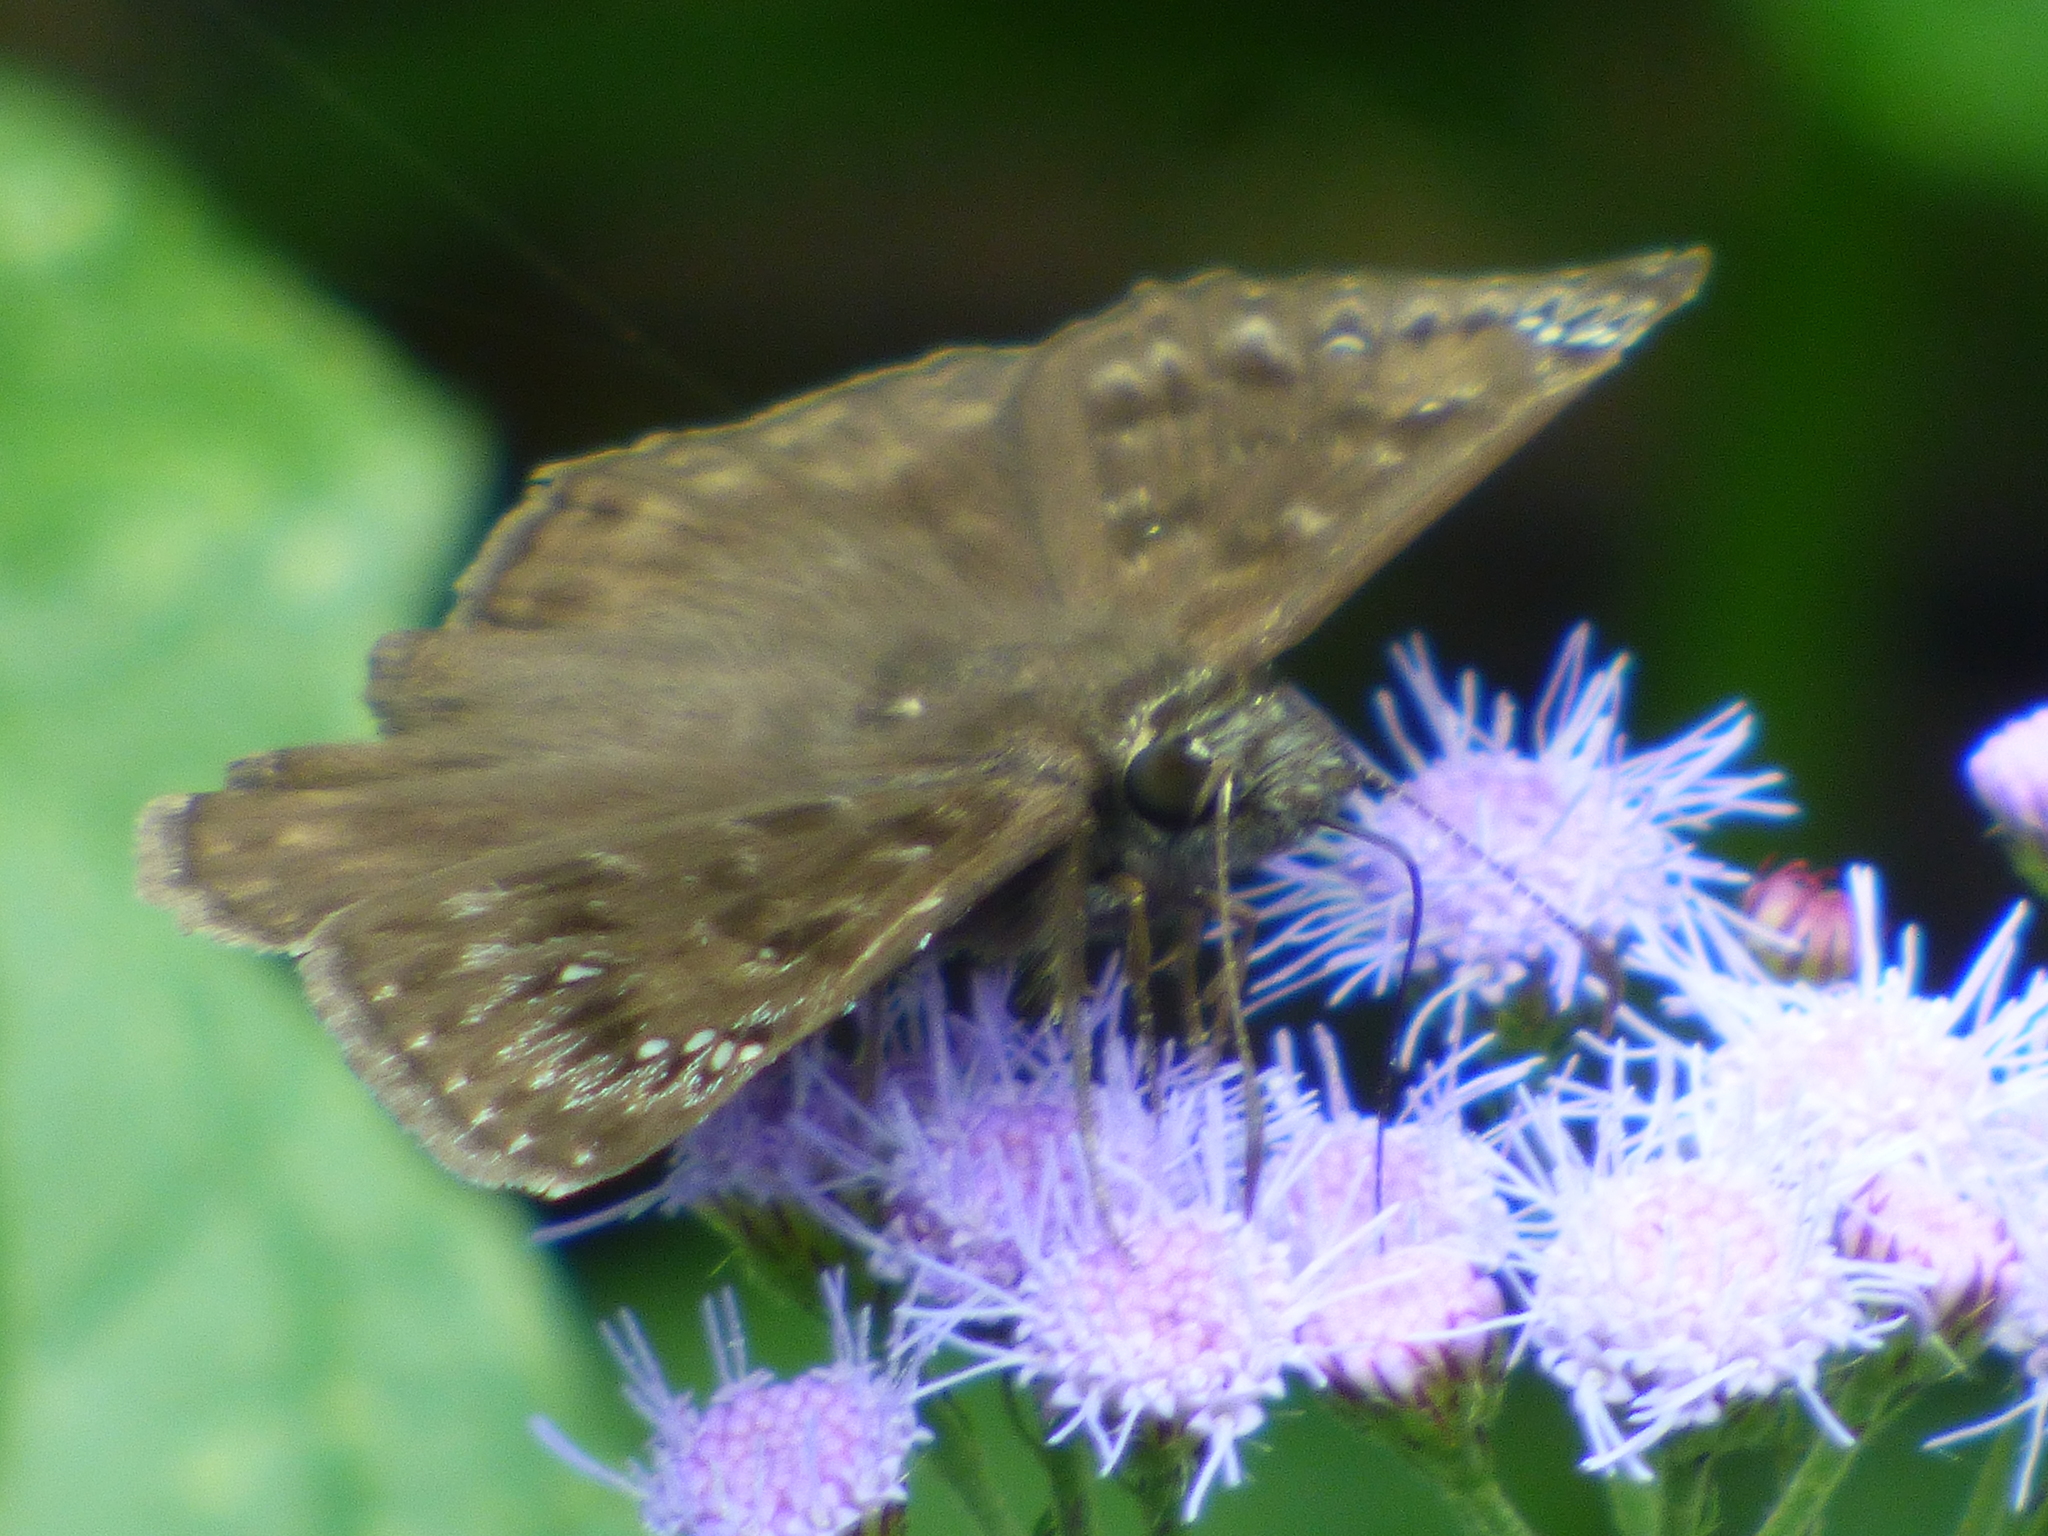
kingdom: Animalia
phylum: Arthropoda
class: Insecta
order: Lepidoptera
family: Hesperiidae
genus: Erynnis
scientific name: Erynnis horatius
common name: Horace's duskywing
